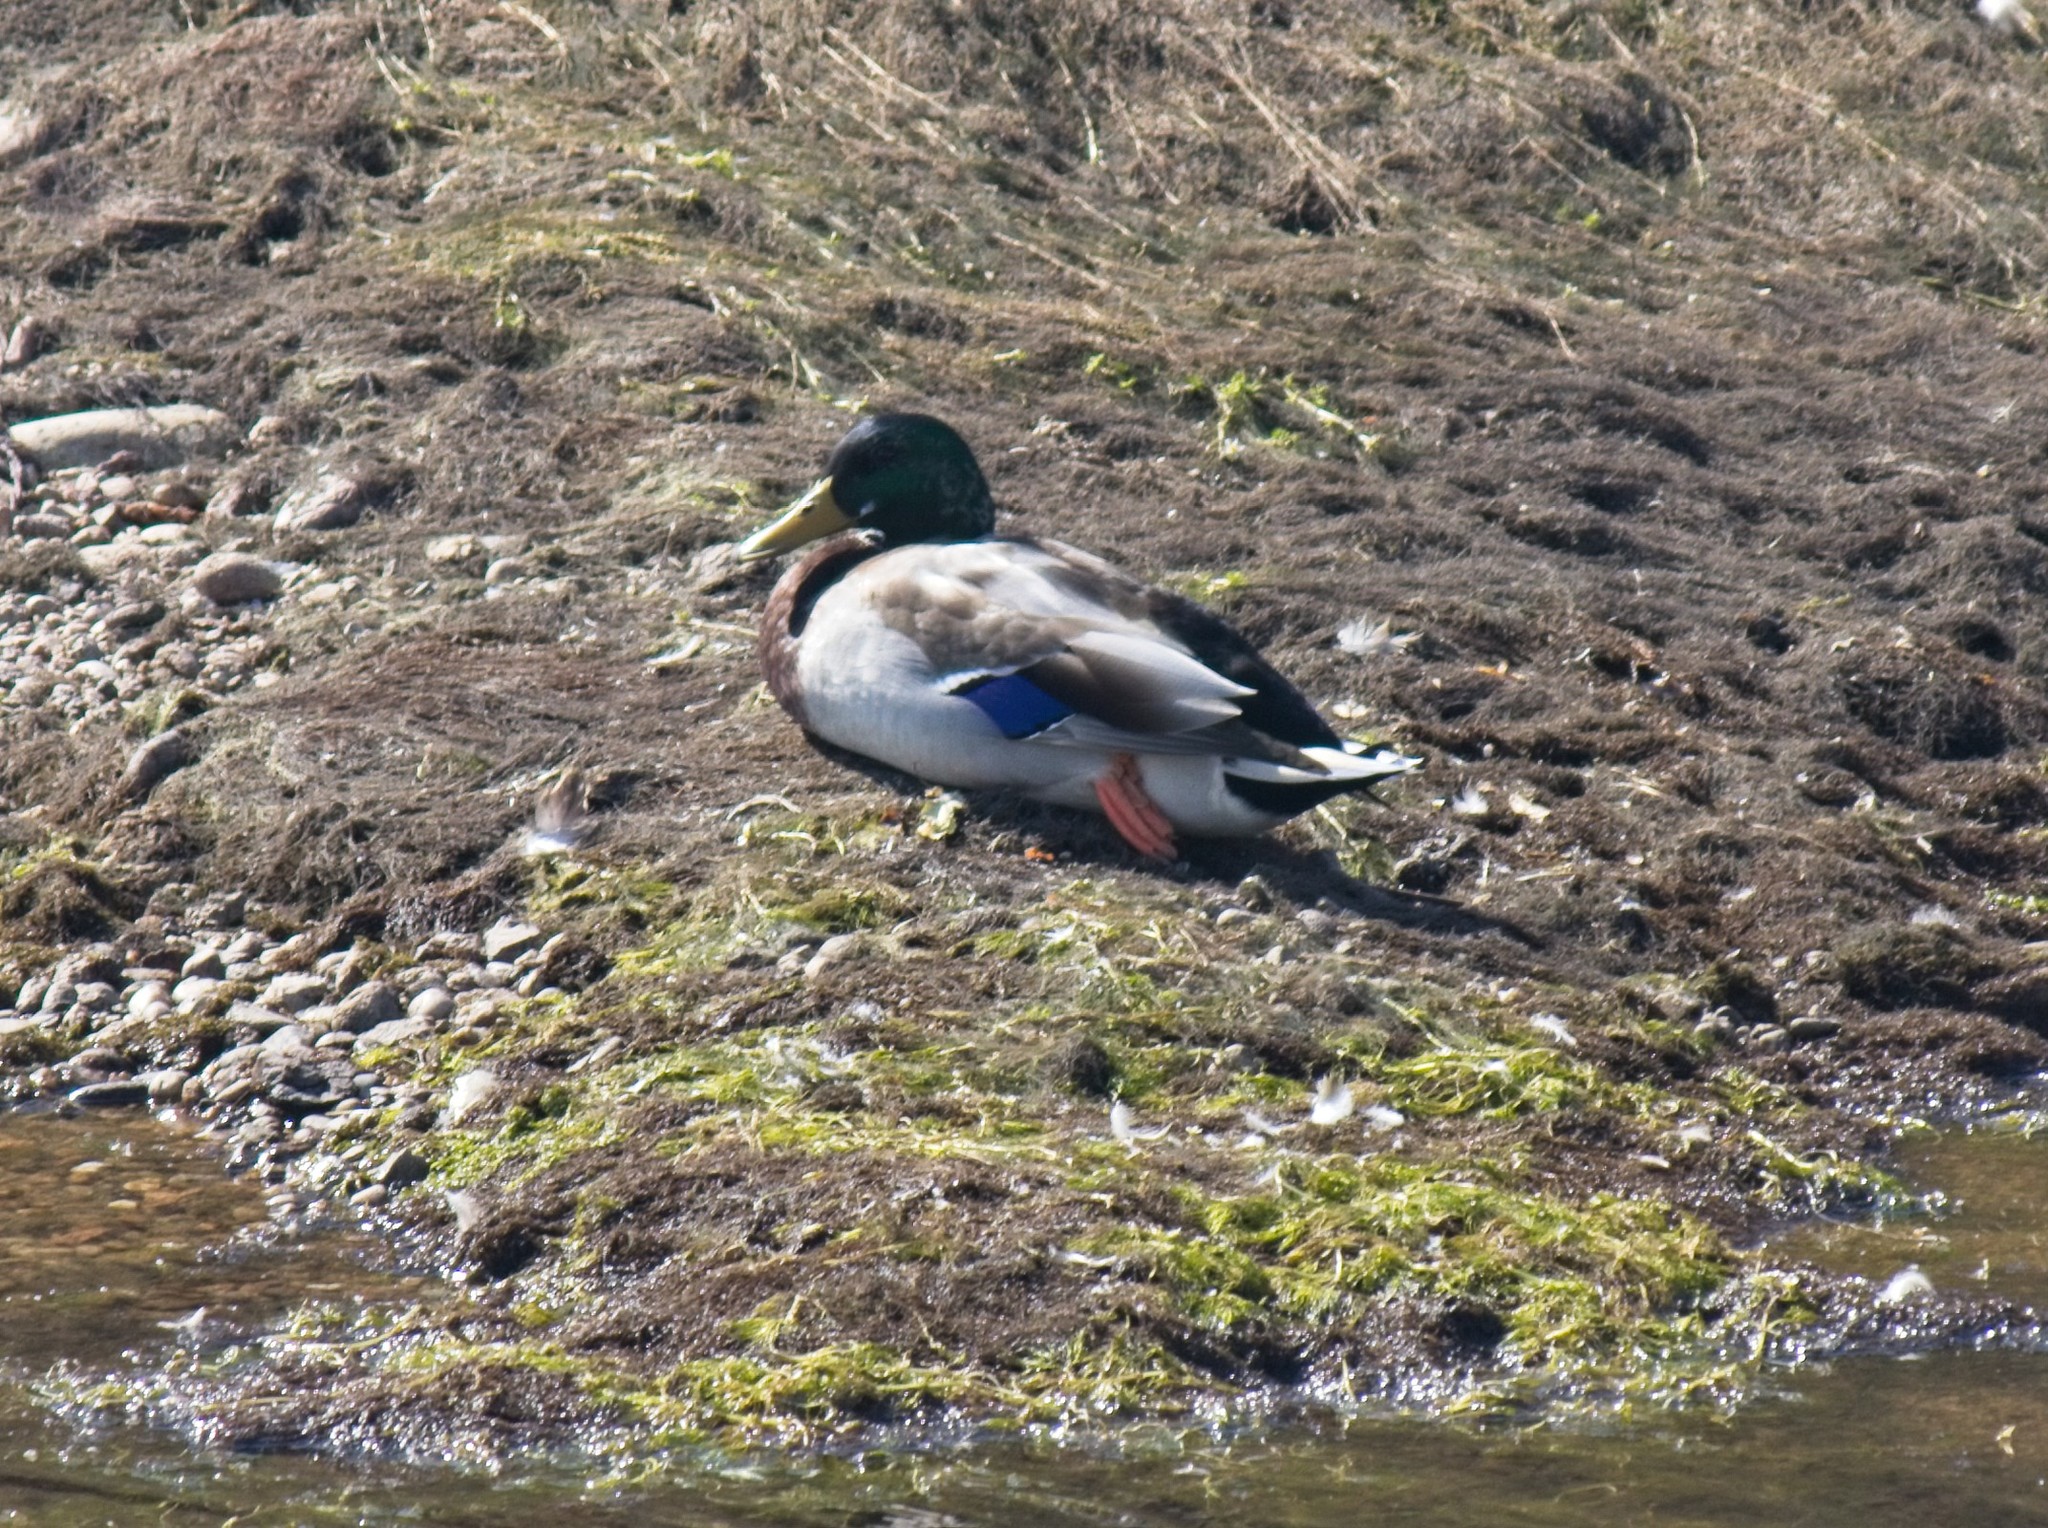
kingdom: Animalia
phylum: Chordata
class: Aves
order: Anseriformes
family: Anatidae
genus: Anas
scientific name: Anas platyrhynchos
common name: Mallard
